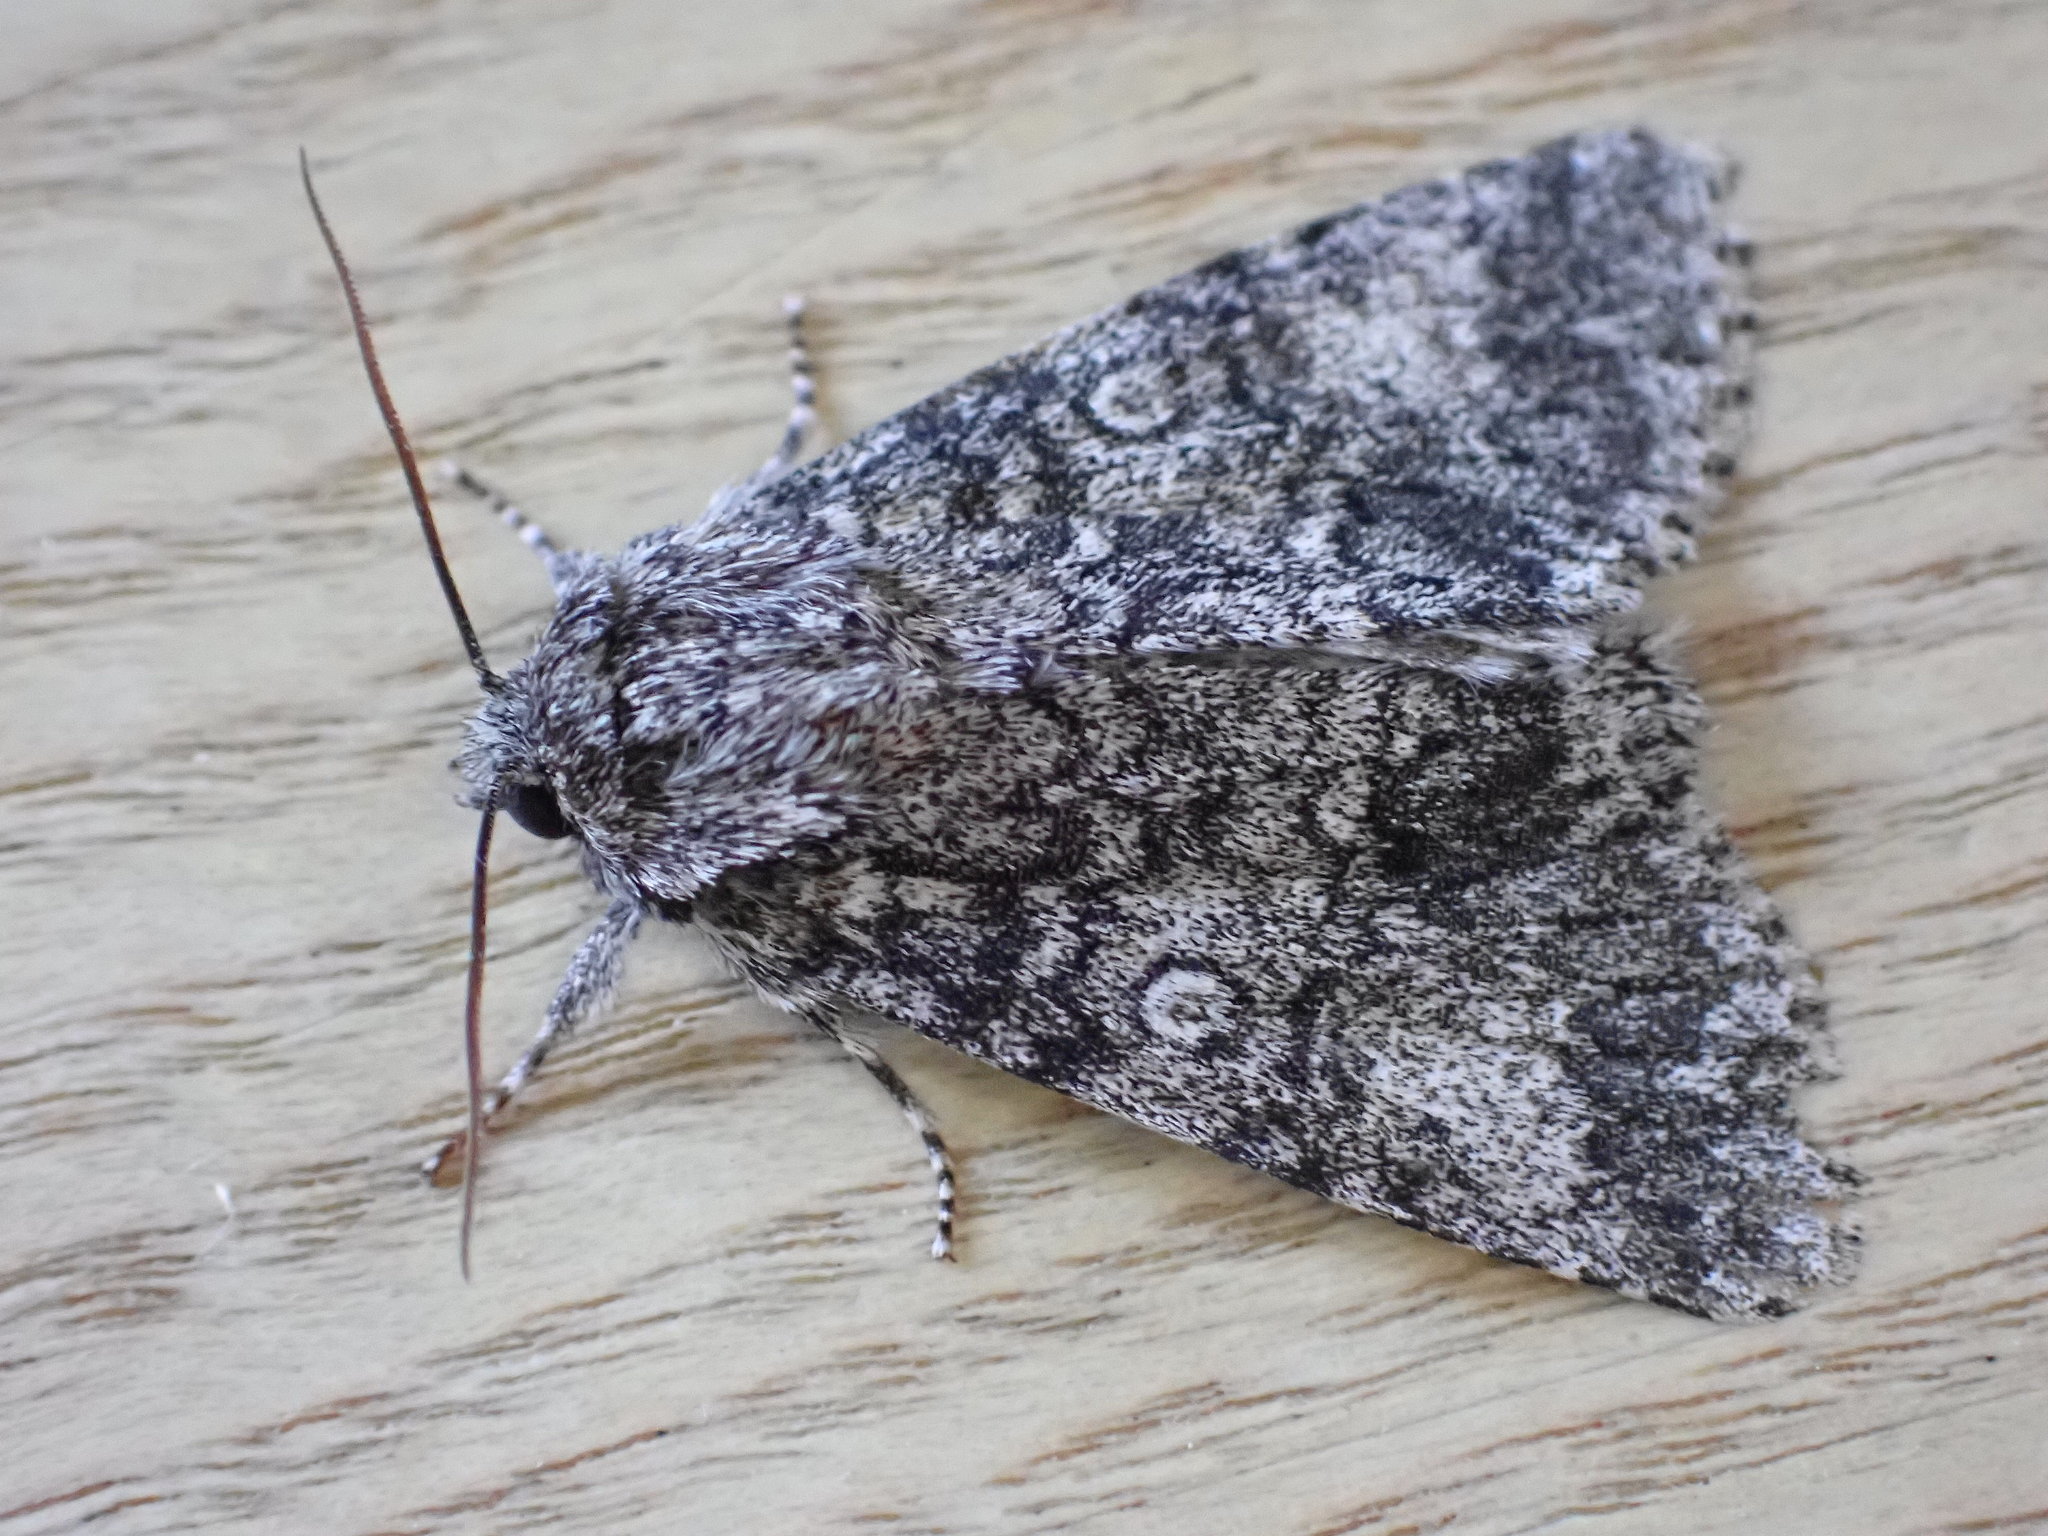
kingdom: Animalia
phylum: Arthropoda
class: Insecta
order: Lepidoptera
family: Noctuidae
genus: Acronicta
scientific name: Acronicta megacephala
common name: Poplar grey
